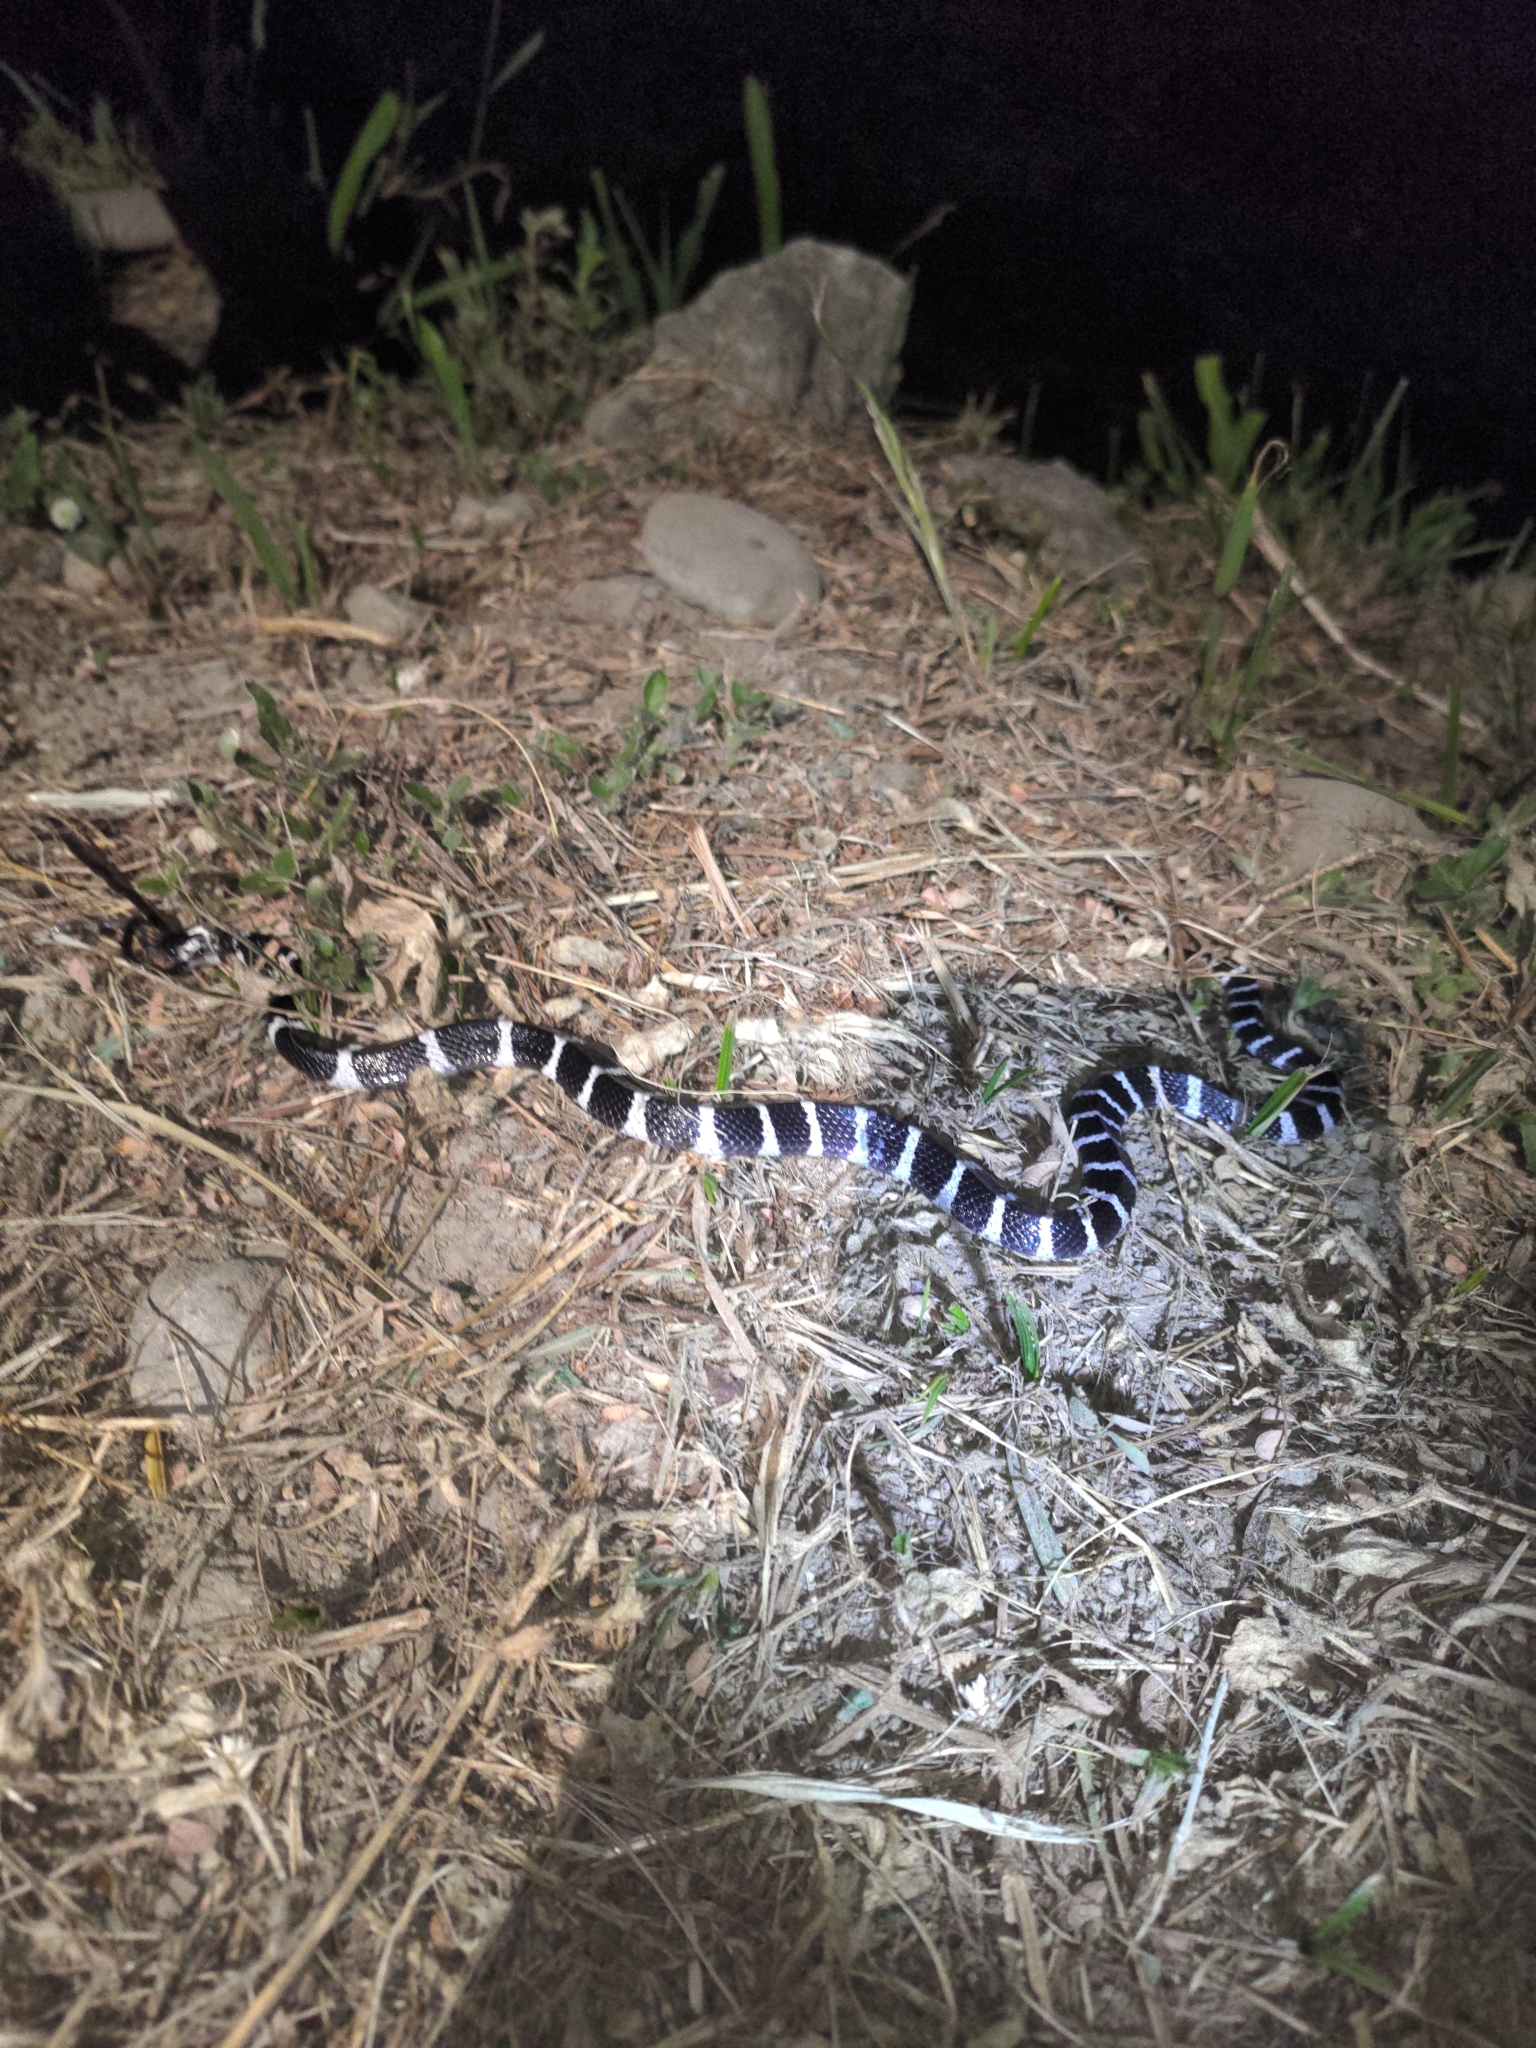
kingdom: Animalia
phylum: Chordata
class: Squamata
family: Elapidae
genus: Bungarus
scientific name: Bungarus multicinctus
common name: Many-banded krait
